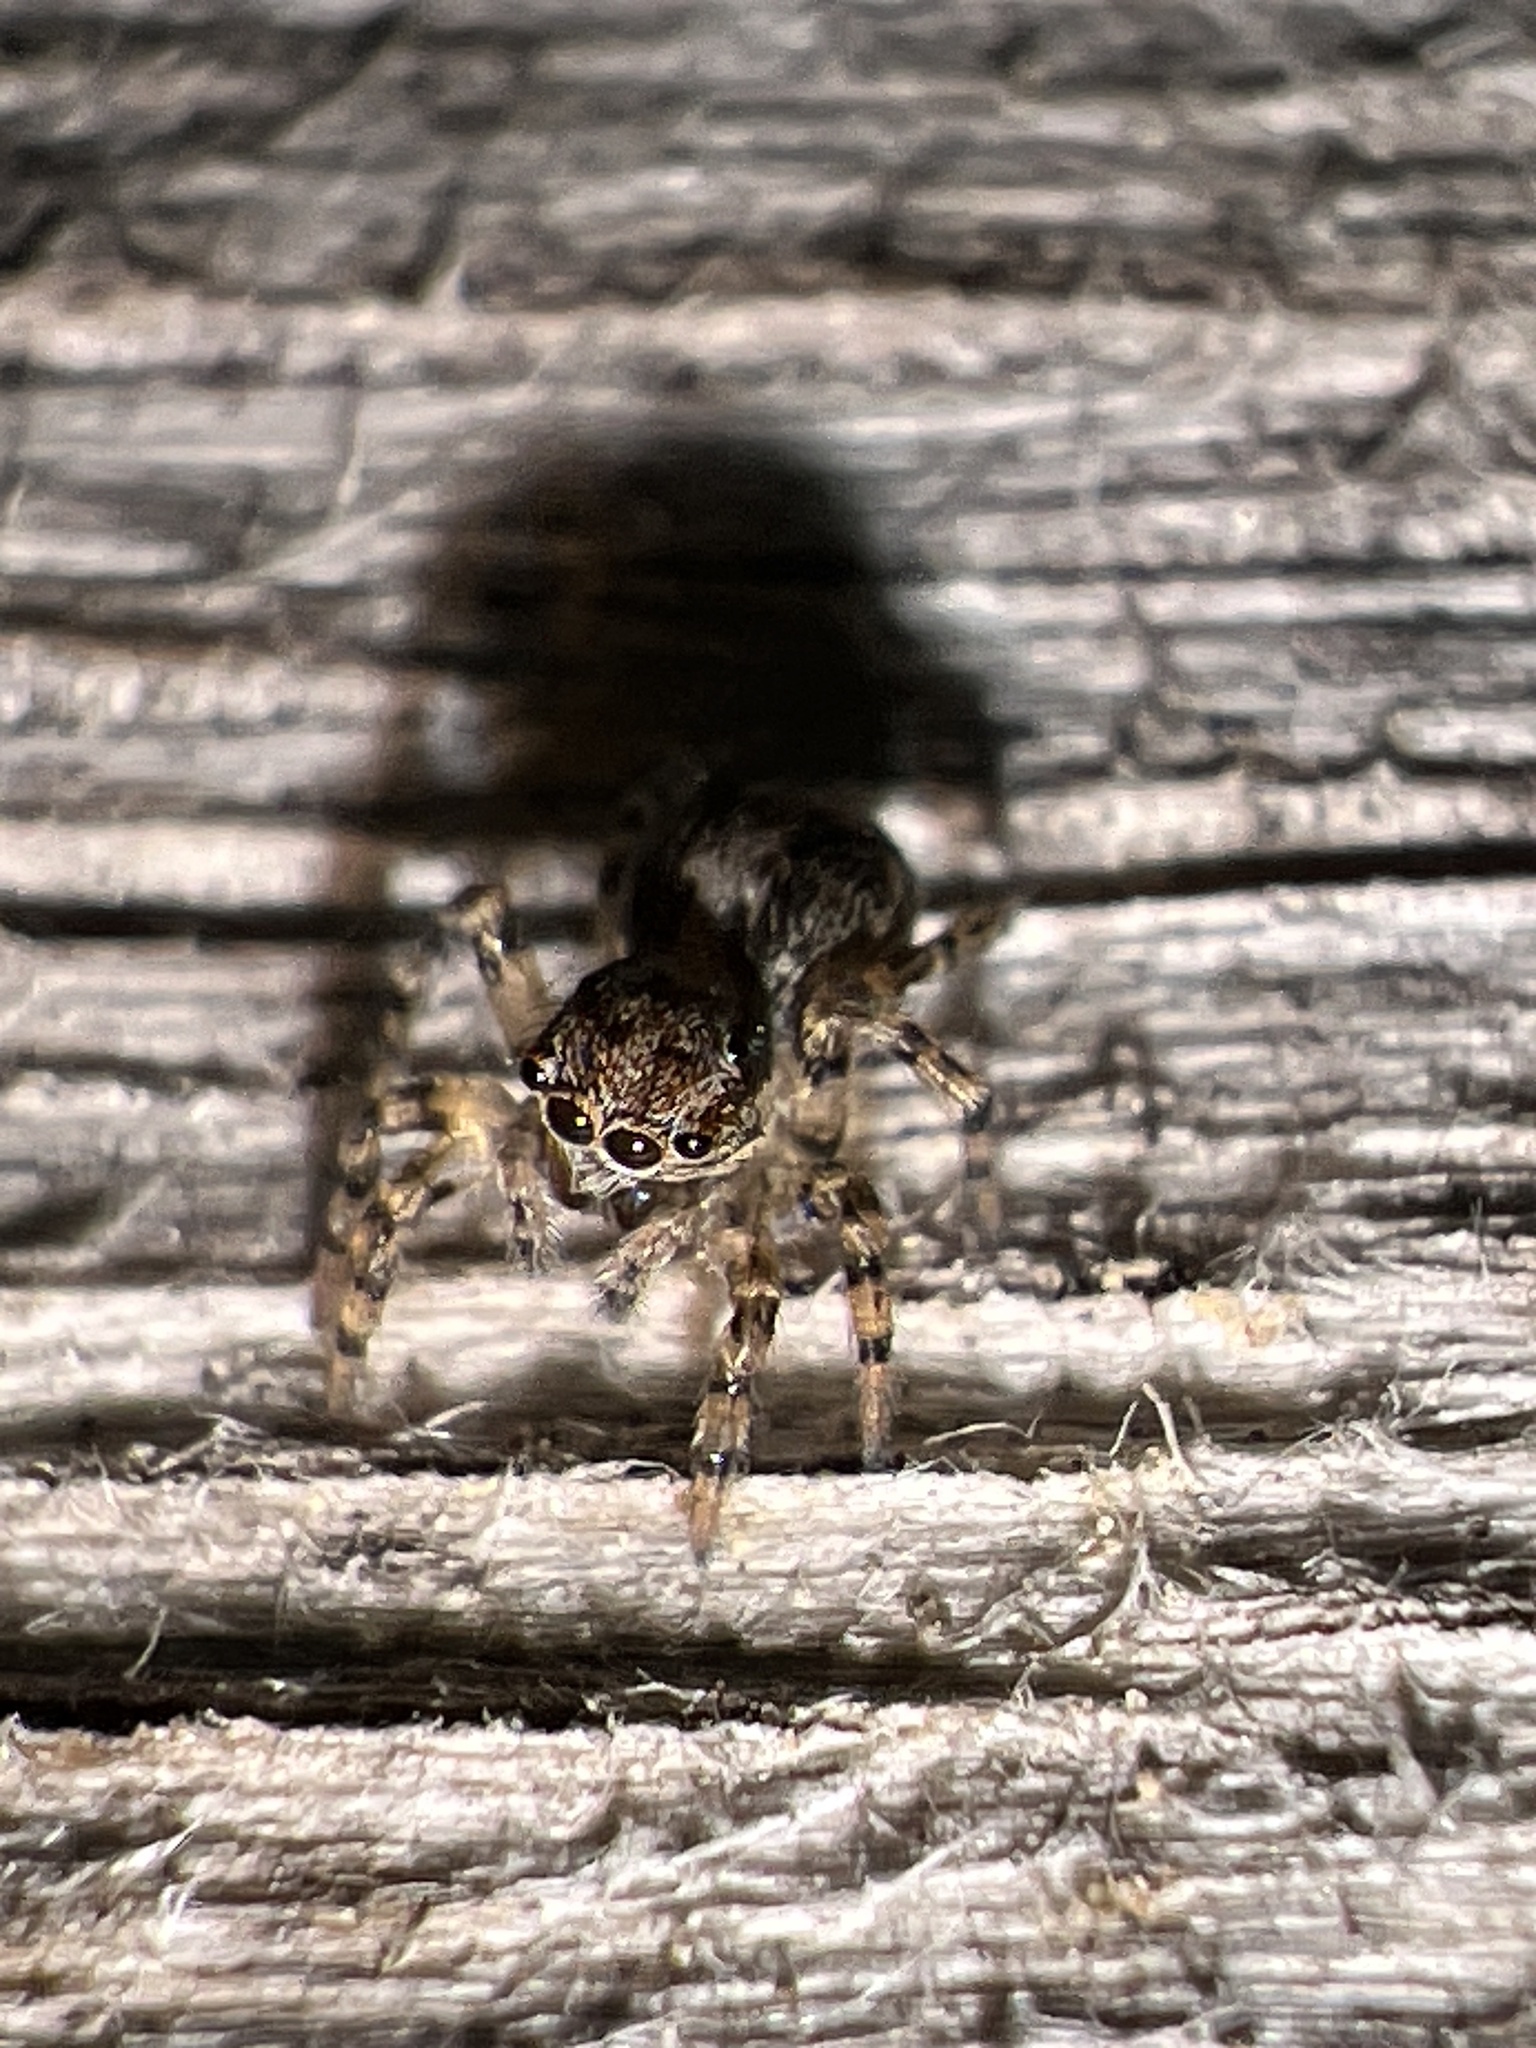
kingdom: Animalia
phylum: Arthropoda
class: Arachnida
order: Araneae
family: Salticidae
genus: Naphrys
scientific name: Naphrys pulex
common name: Flea jumping spider
